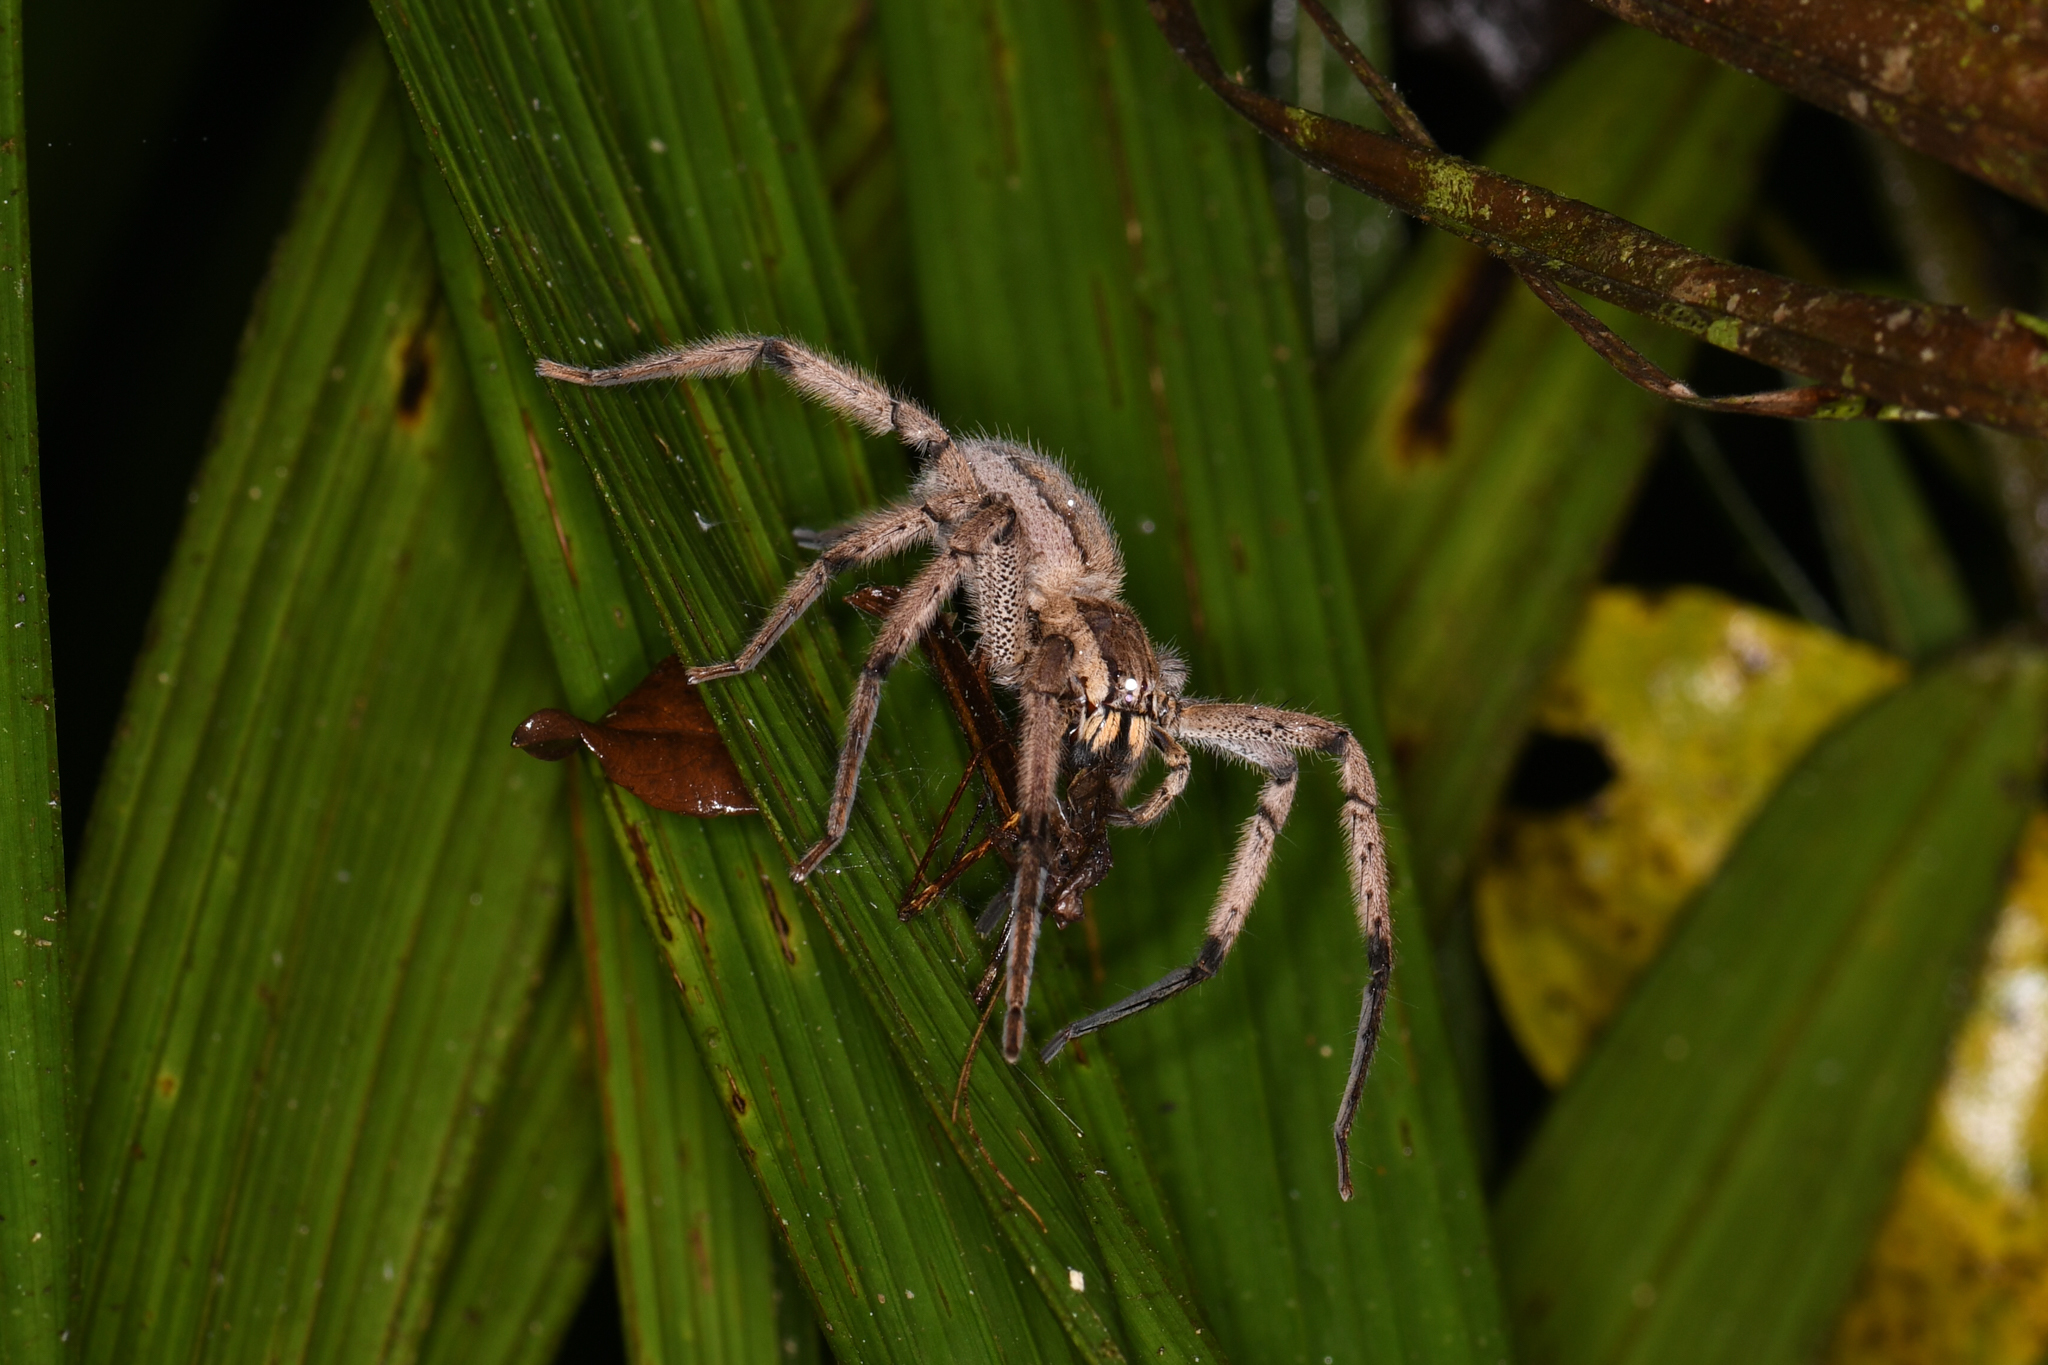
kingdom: Animalia
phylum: Arthropoda
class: Arachnida
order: Araneae
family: Trechaleidae
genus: Cupiennius
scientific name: Cupiennius getazi
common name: Wandering spiders
